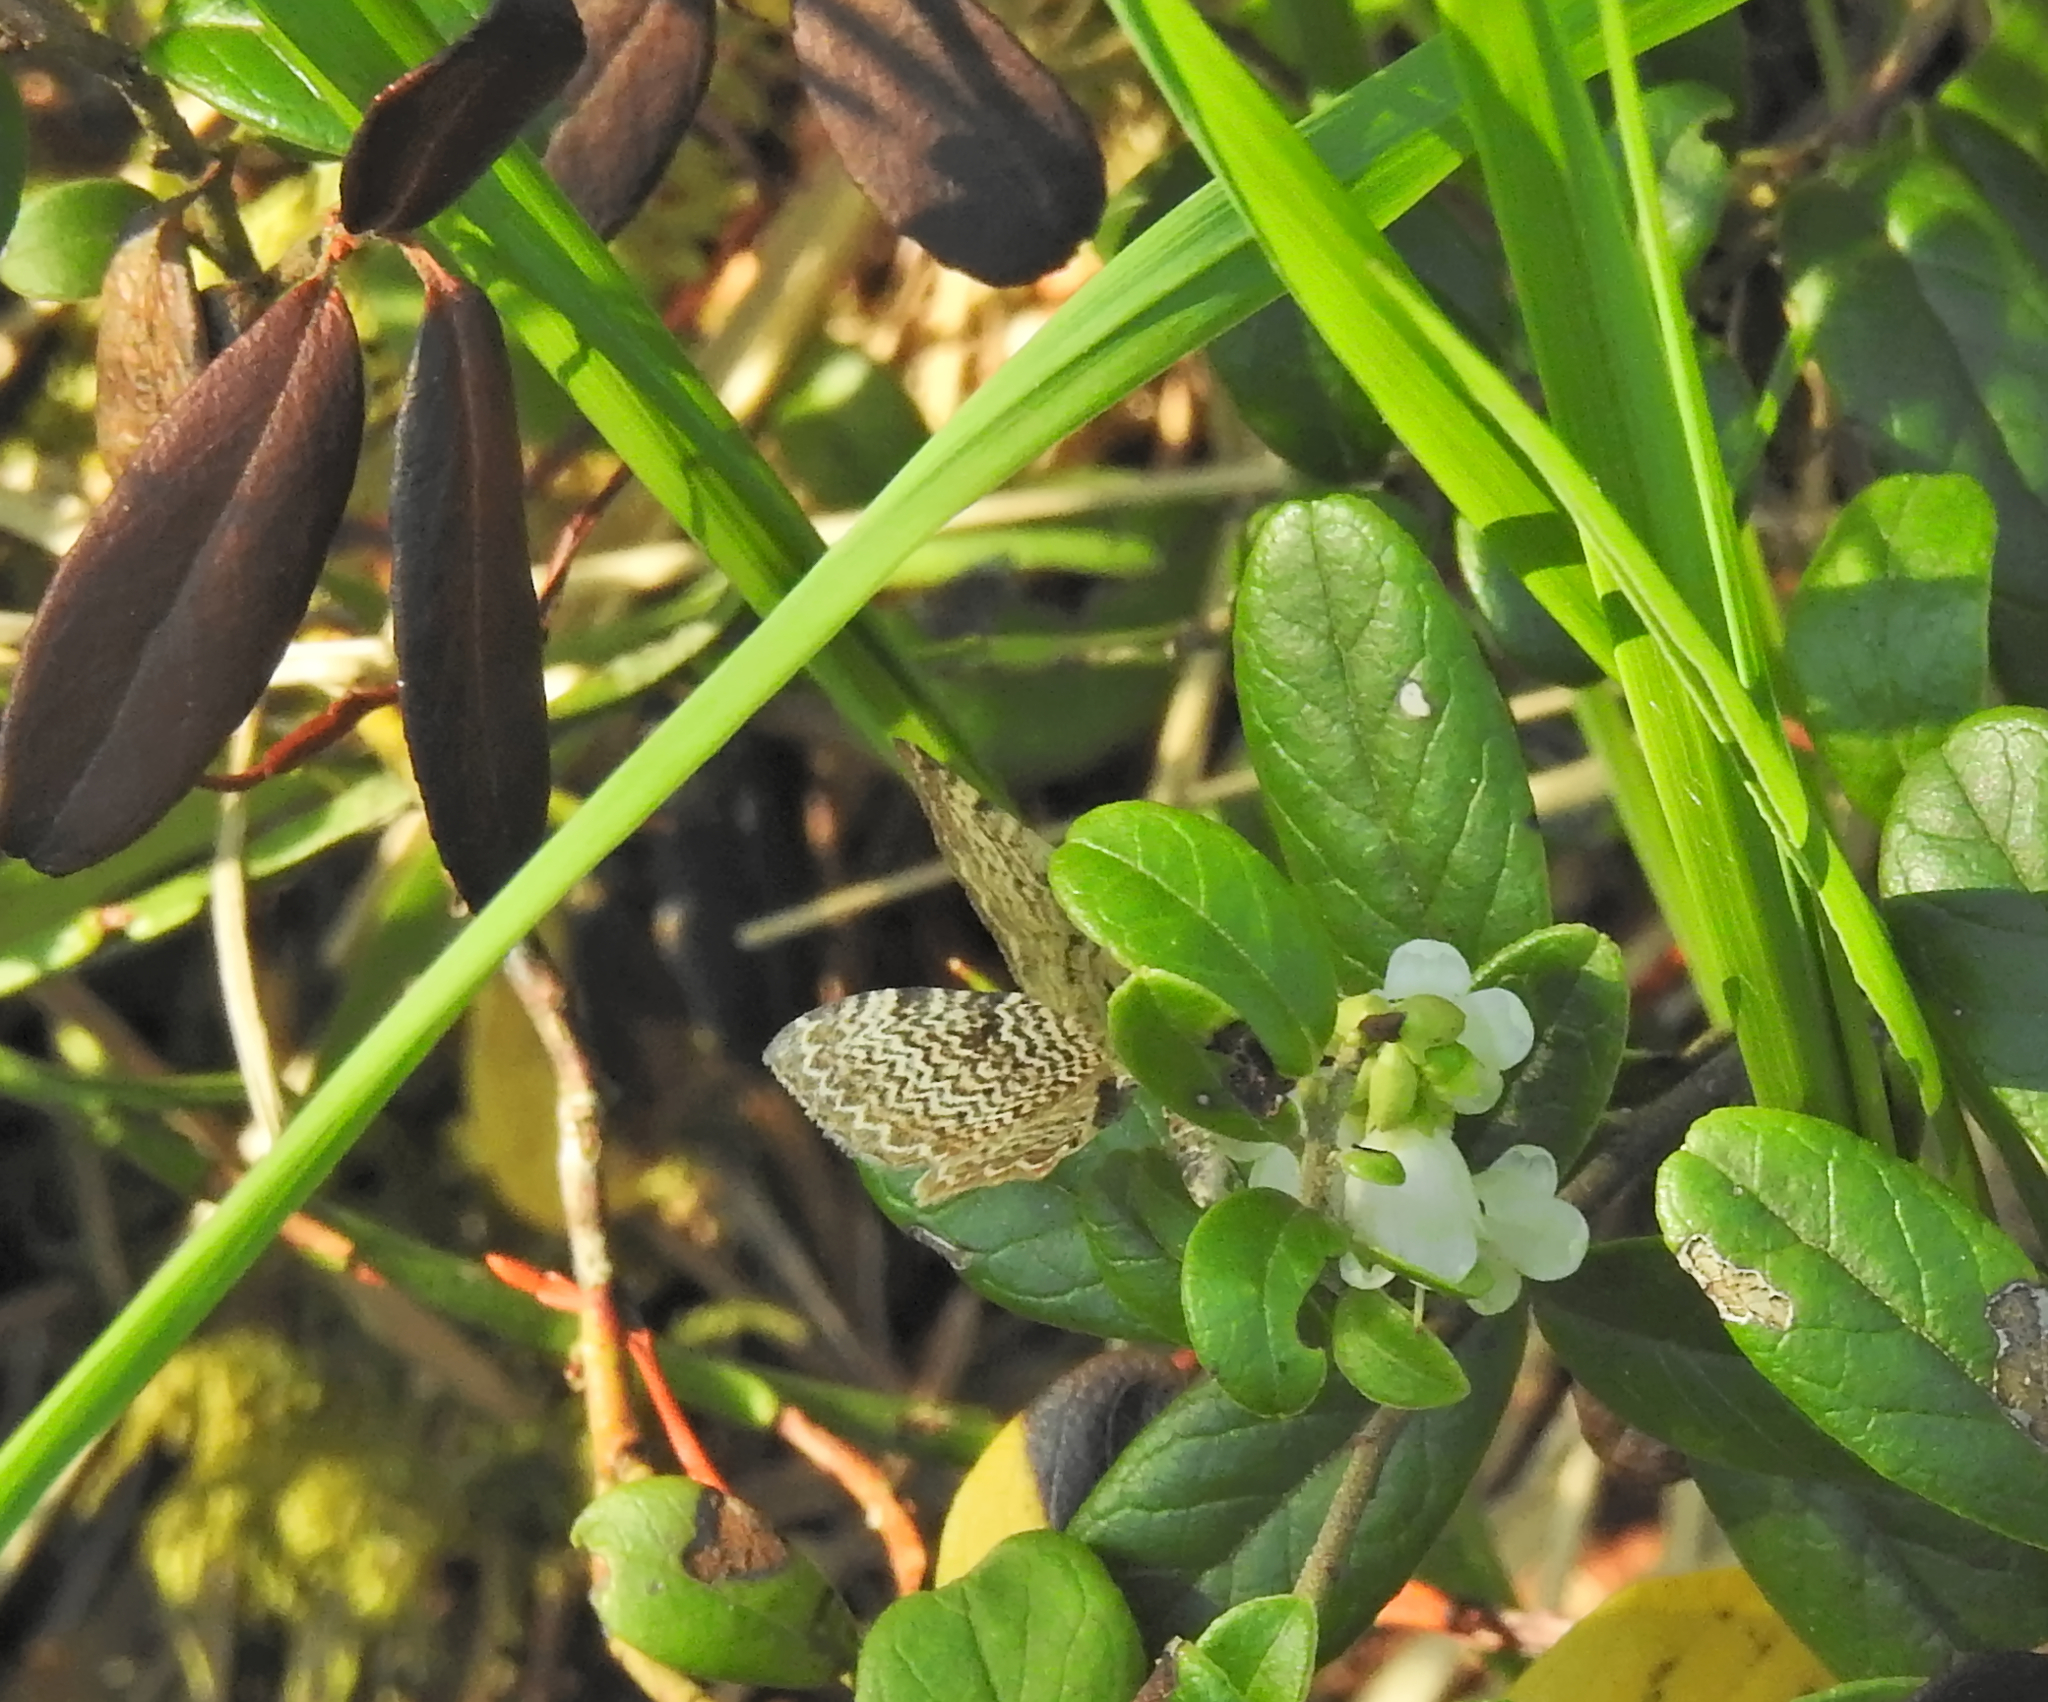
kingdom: Animalia
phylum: Arthropoda
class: Insecta
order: Lepidoptera
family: Geometridae
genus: Rheumaptera
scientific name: Rheumaptera undulata
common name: Scallop shell
